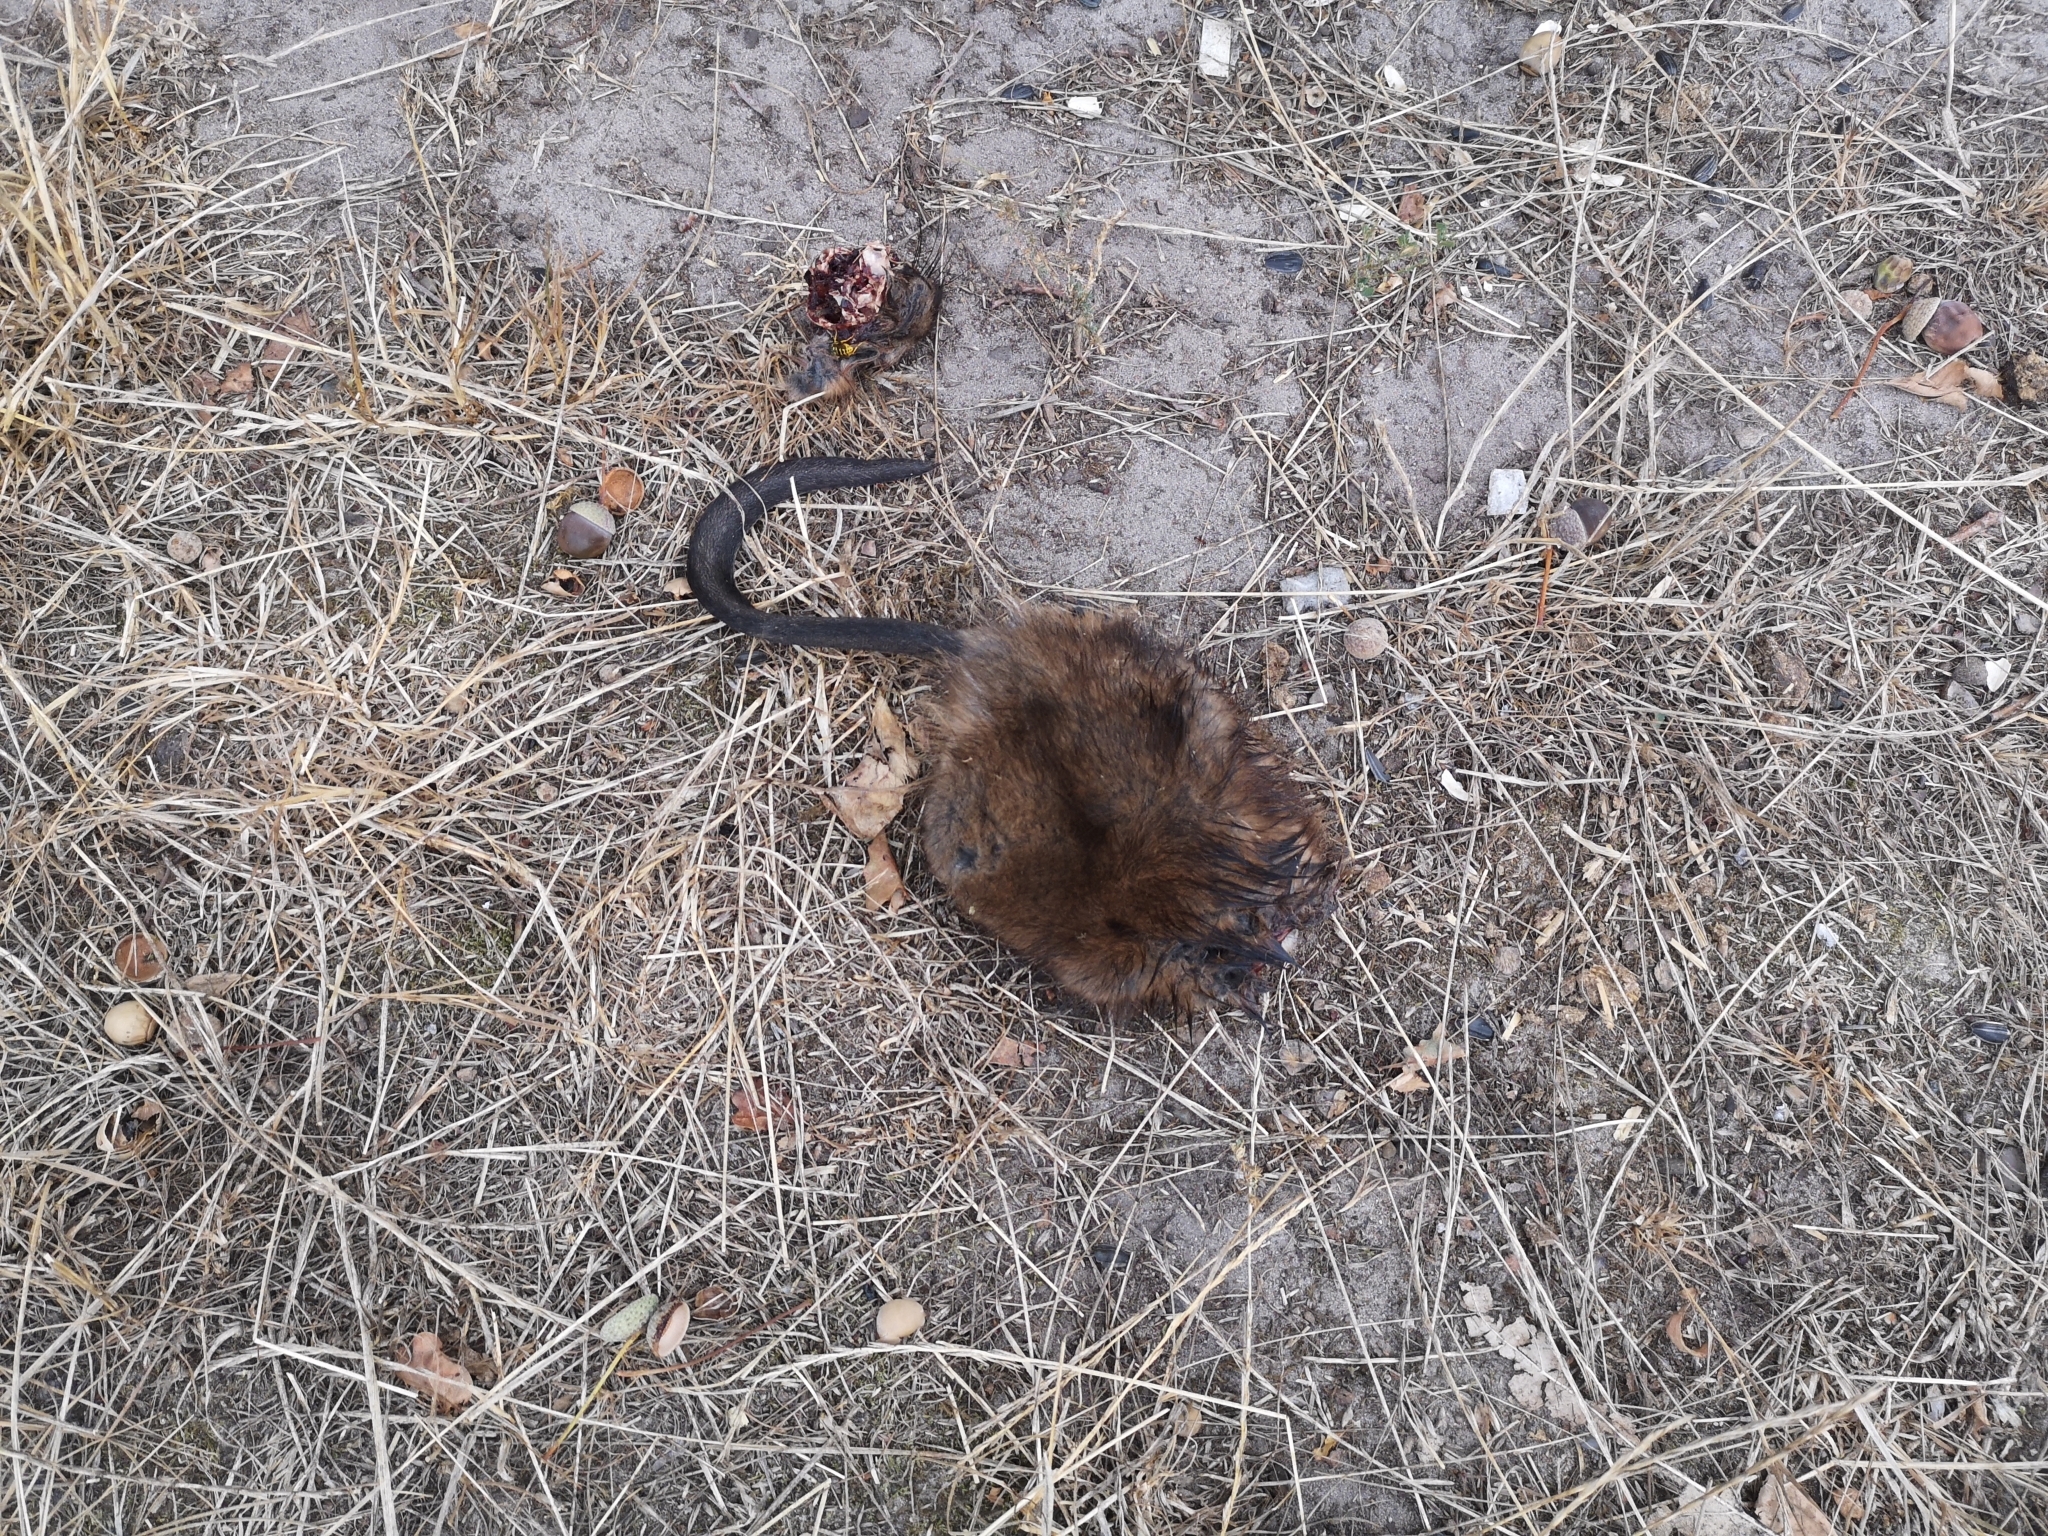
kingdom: Animalia
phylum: Chordata
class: Mammalia
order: Rodentia
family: Cricetidae
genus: Ondatra
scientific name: Ondatra zibethicus
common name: Muskrat
